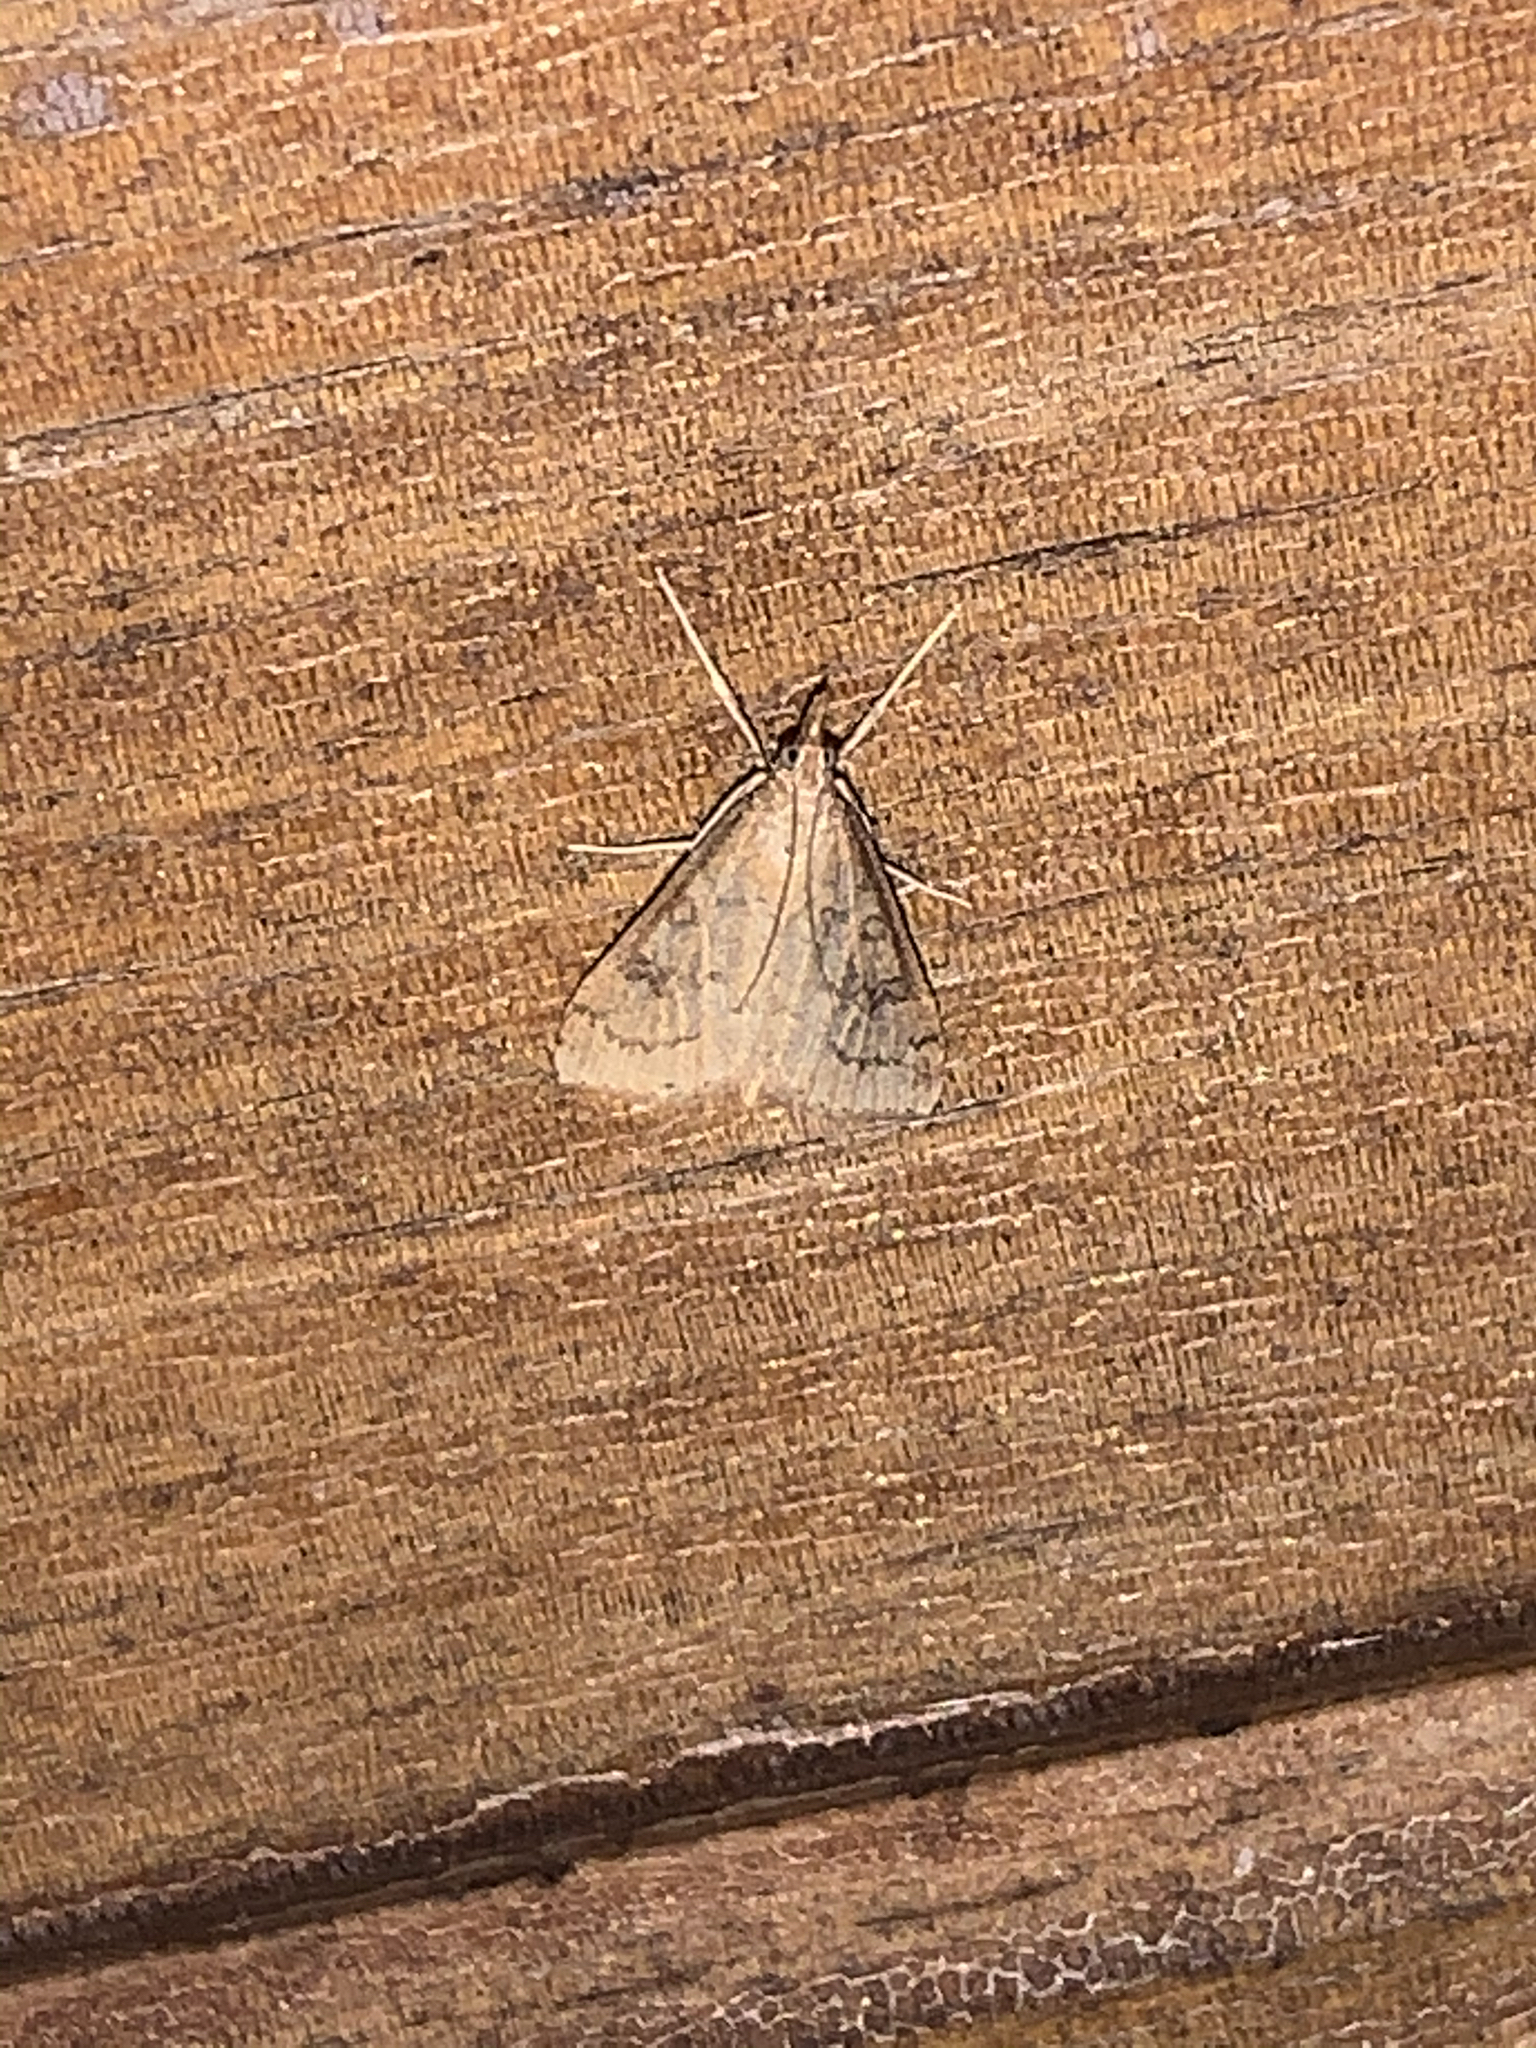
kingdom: Animalia
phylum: Arthropoda
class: Insecta
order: Lepidoptera
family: Crambidae
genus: Udea
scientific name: Udea rubigalis
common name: Celery leaftier moth
